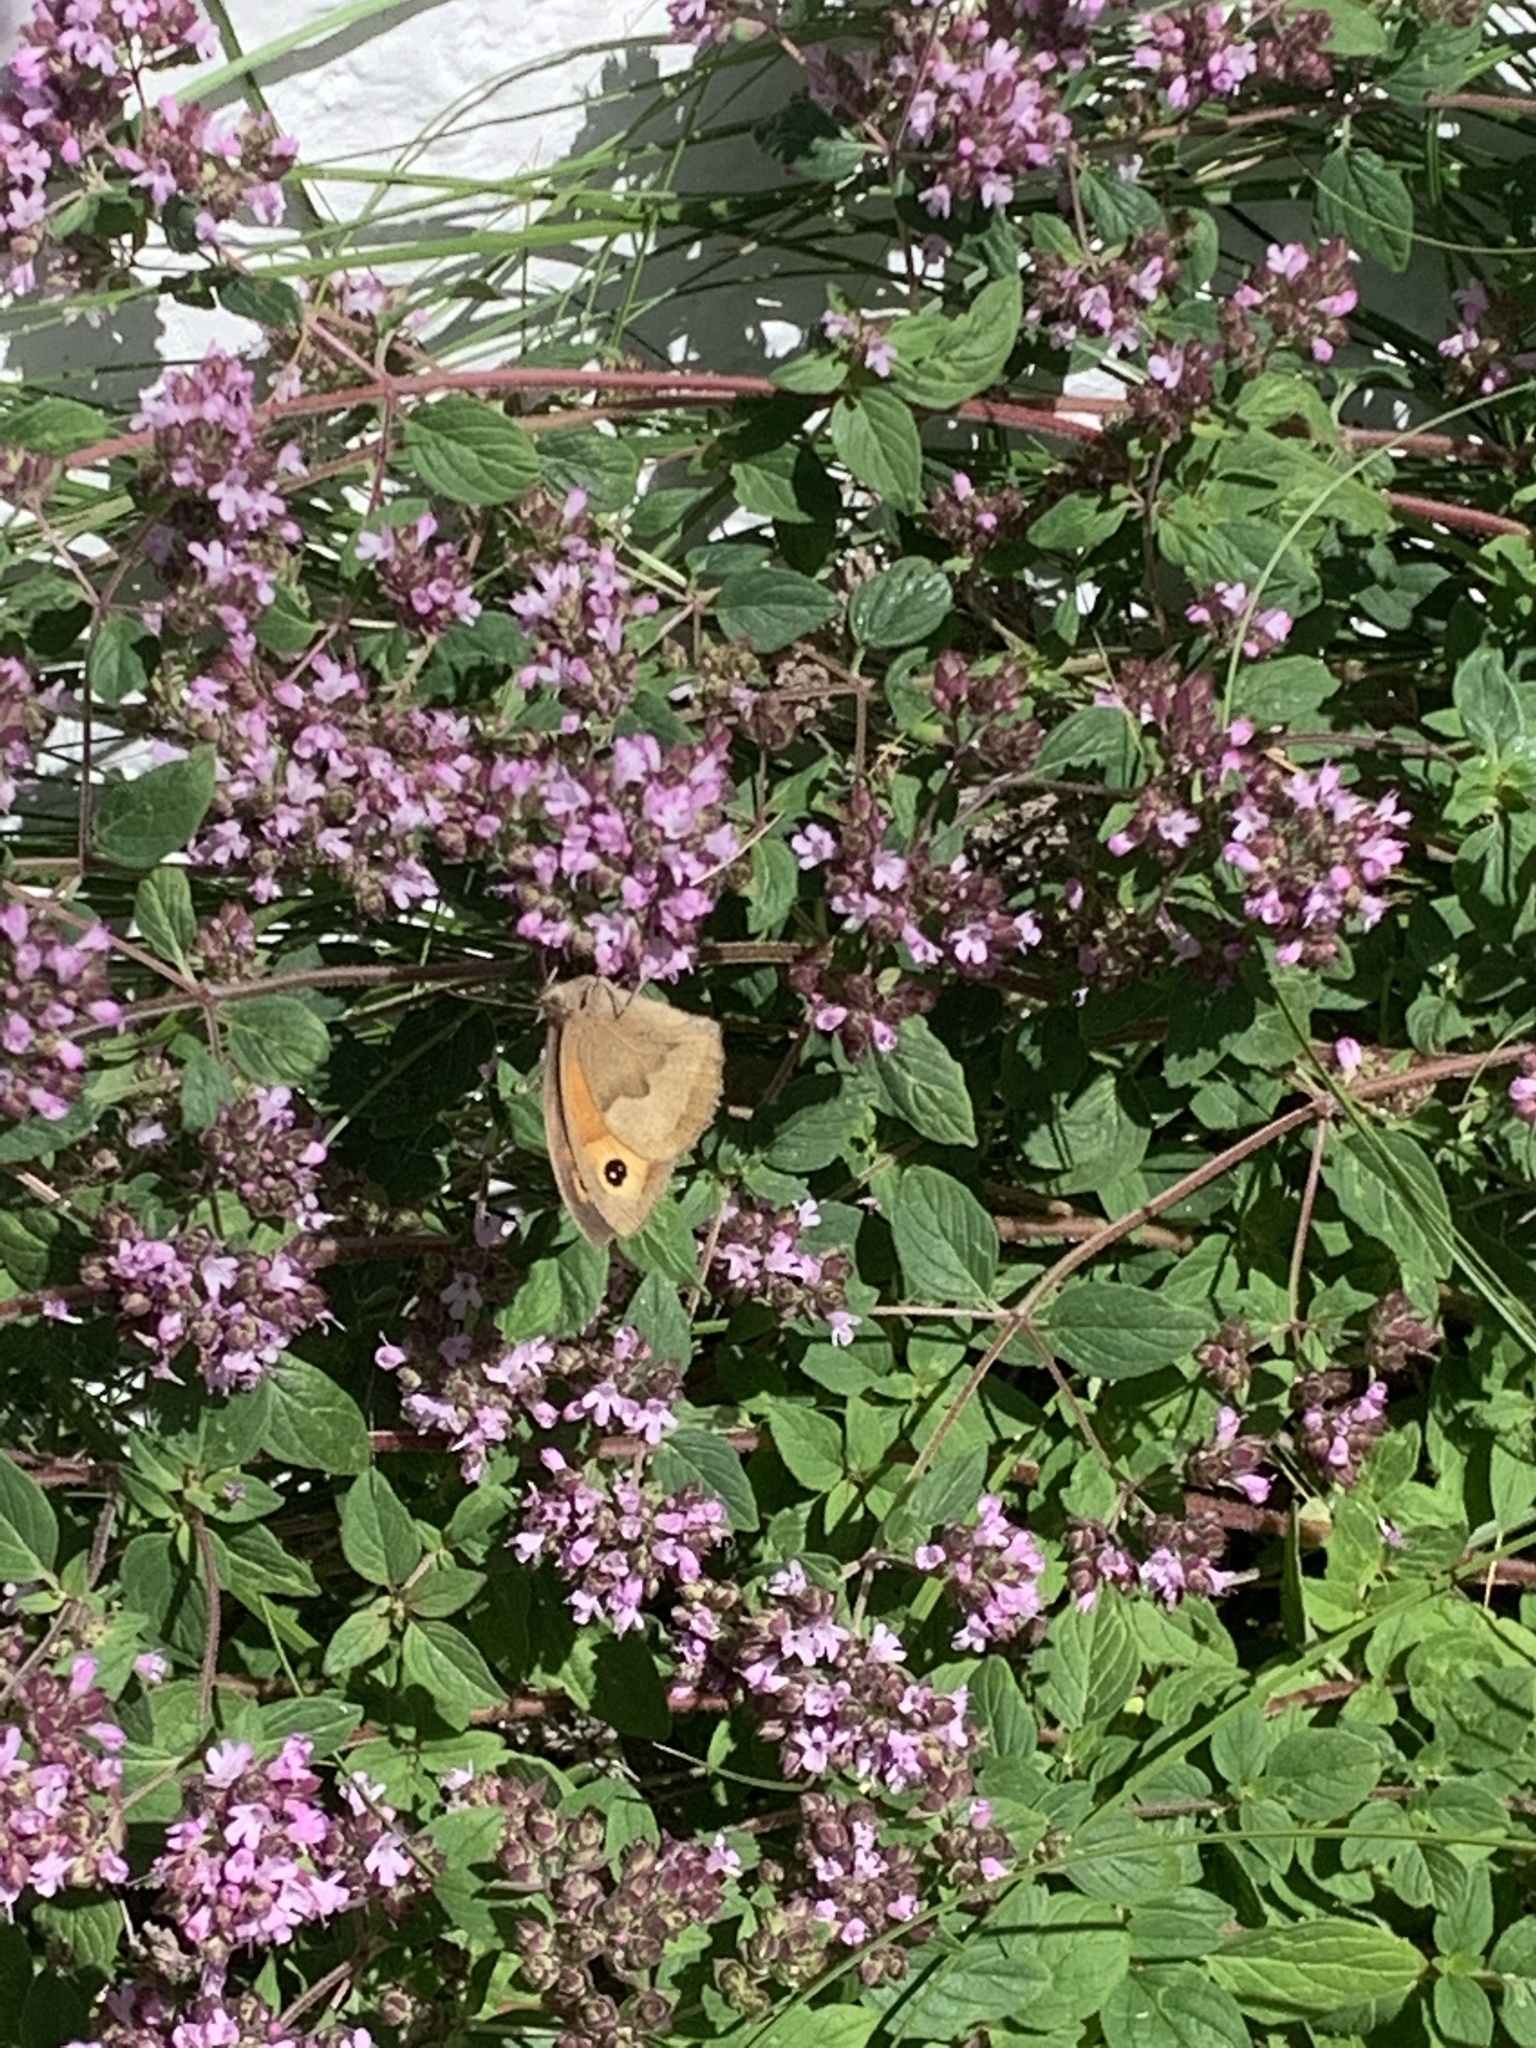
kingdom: Animalia
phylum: Arthropoda
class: Insecta
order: Lepidoptera
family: Nymphalidae
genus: Maniola
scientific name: Maniola jurtina
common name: Meadow brown
